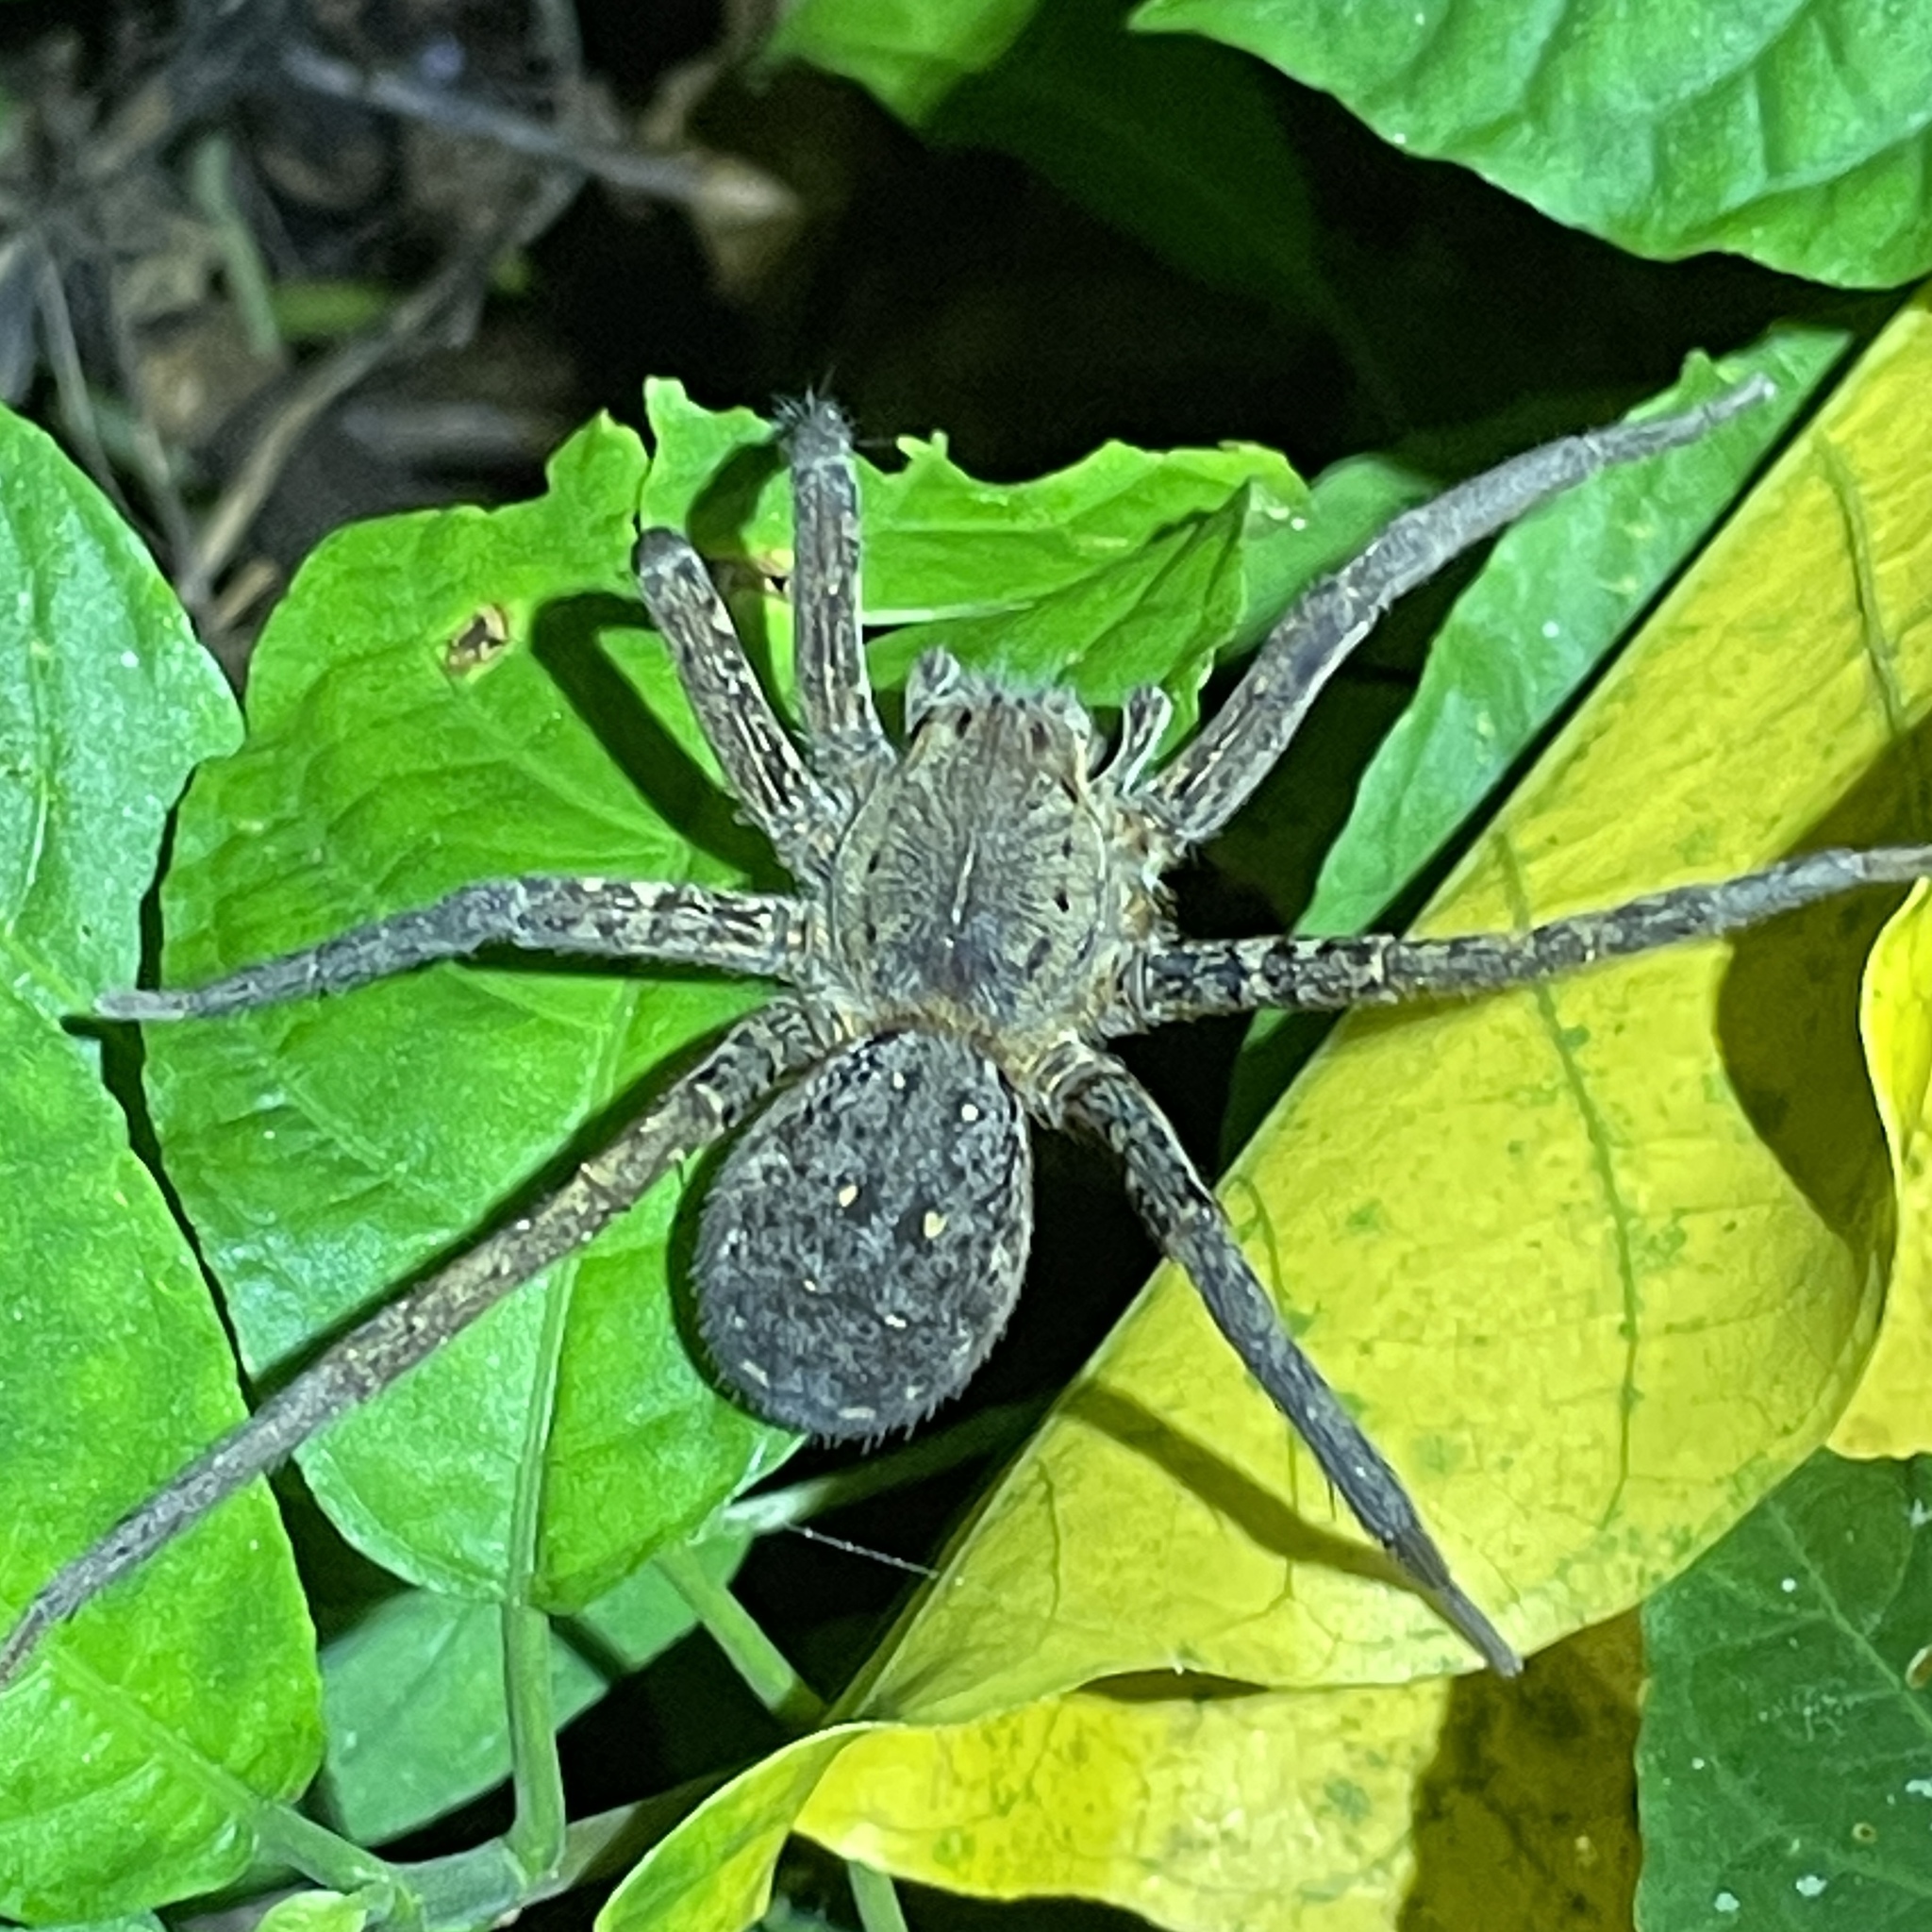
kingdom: Animalia
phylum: Arthropoda
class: Arachnida
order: Araneae
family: Ctenidae
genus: Ancylometes
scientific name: Ancylometes
